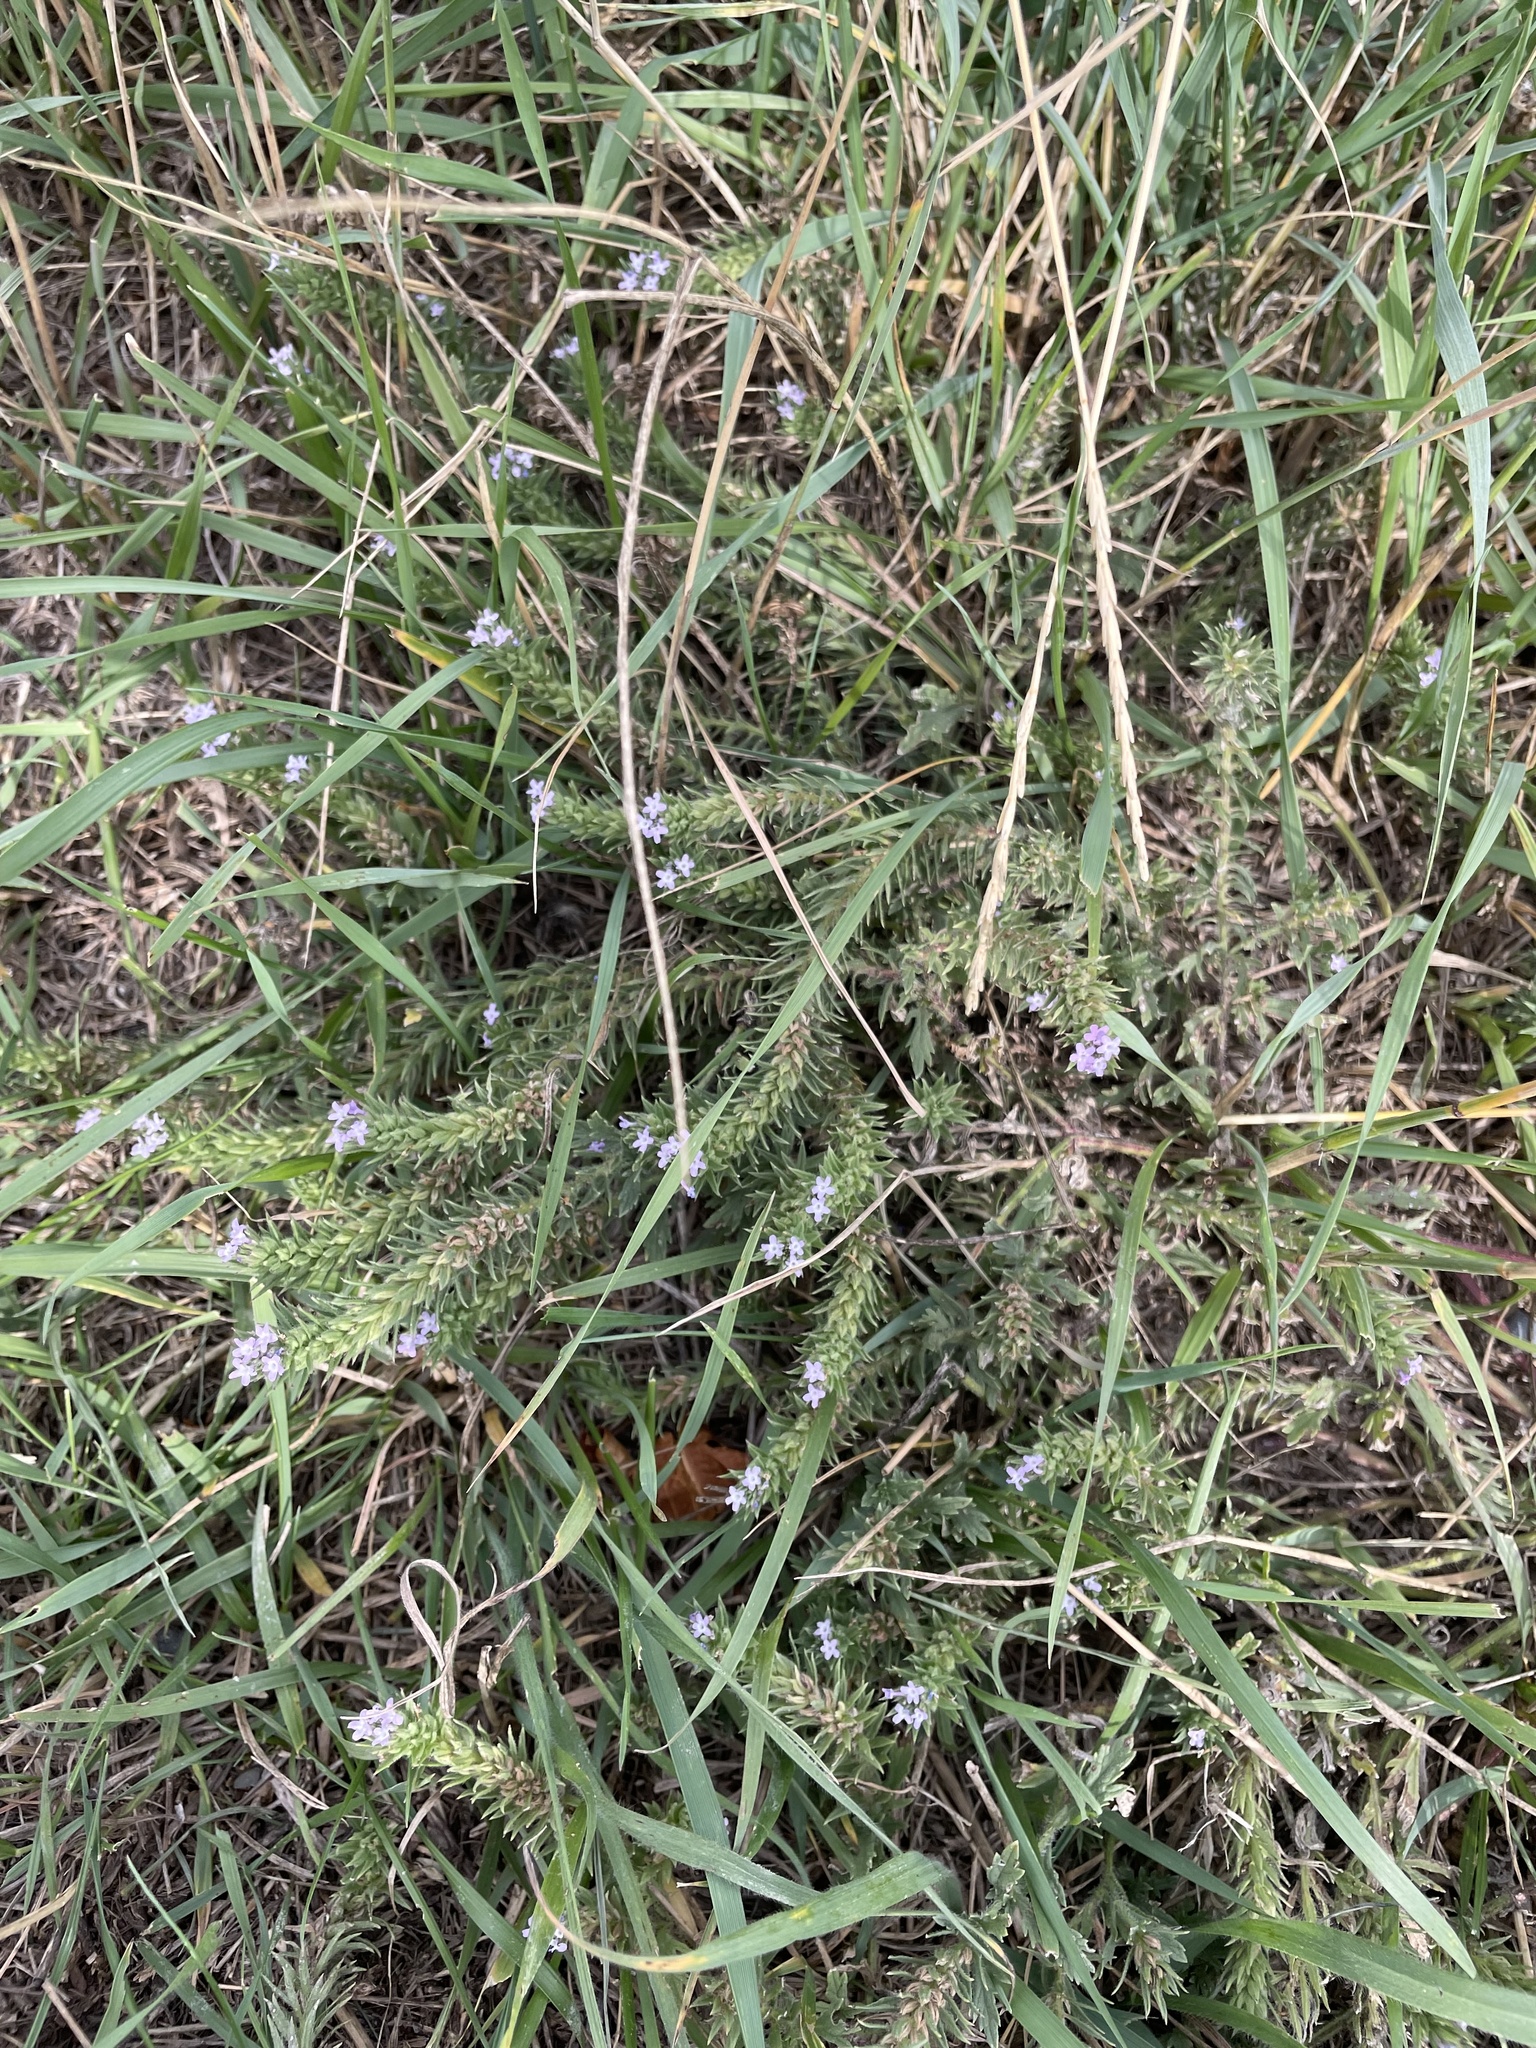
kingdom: Plantae
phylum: Tracheophyta
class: Magnoliopsida
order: Lamiales
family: Verbenaceae
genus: Verbena
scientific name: Verbena bracteata
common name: Bracted vervain
